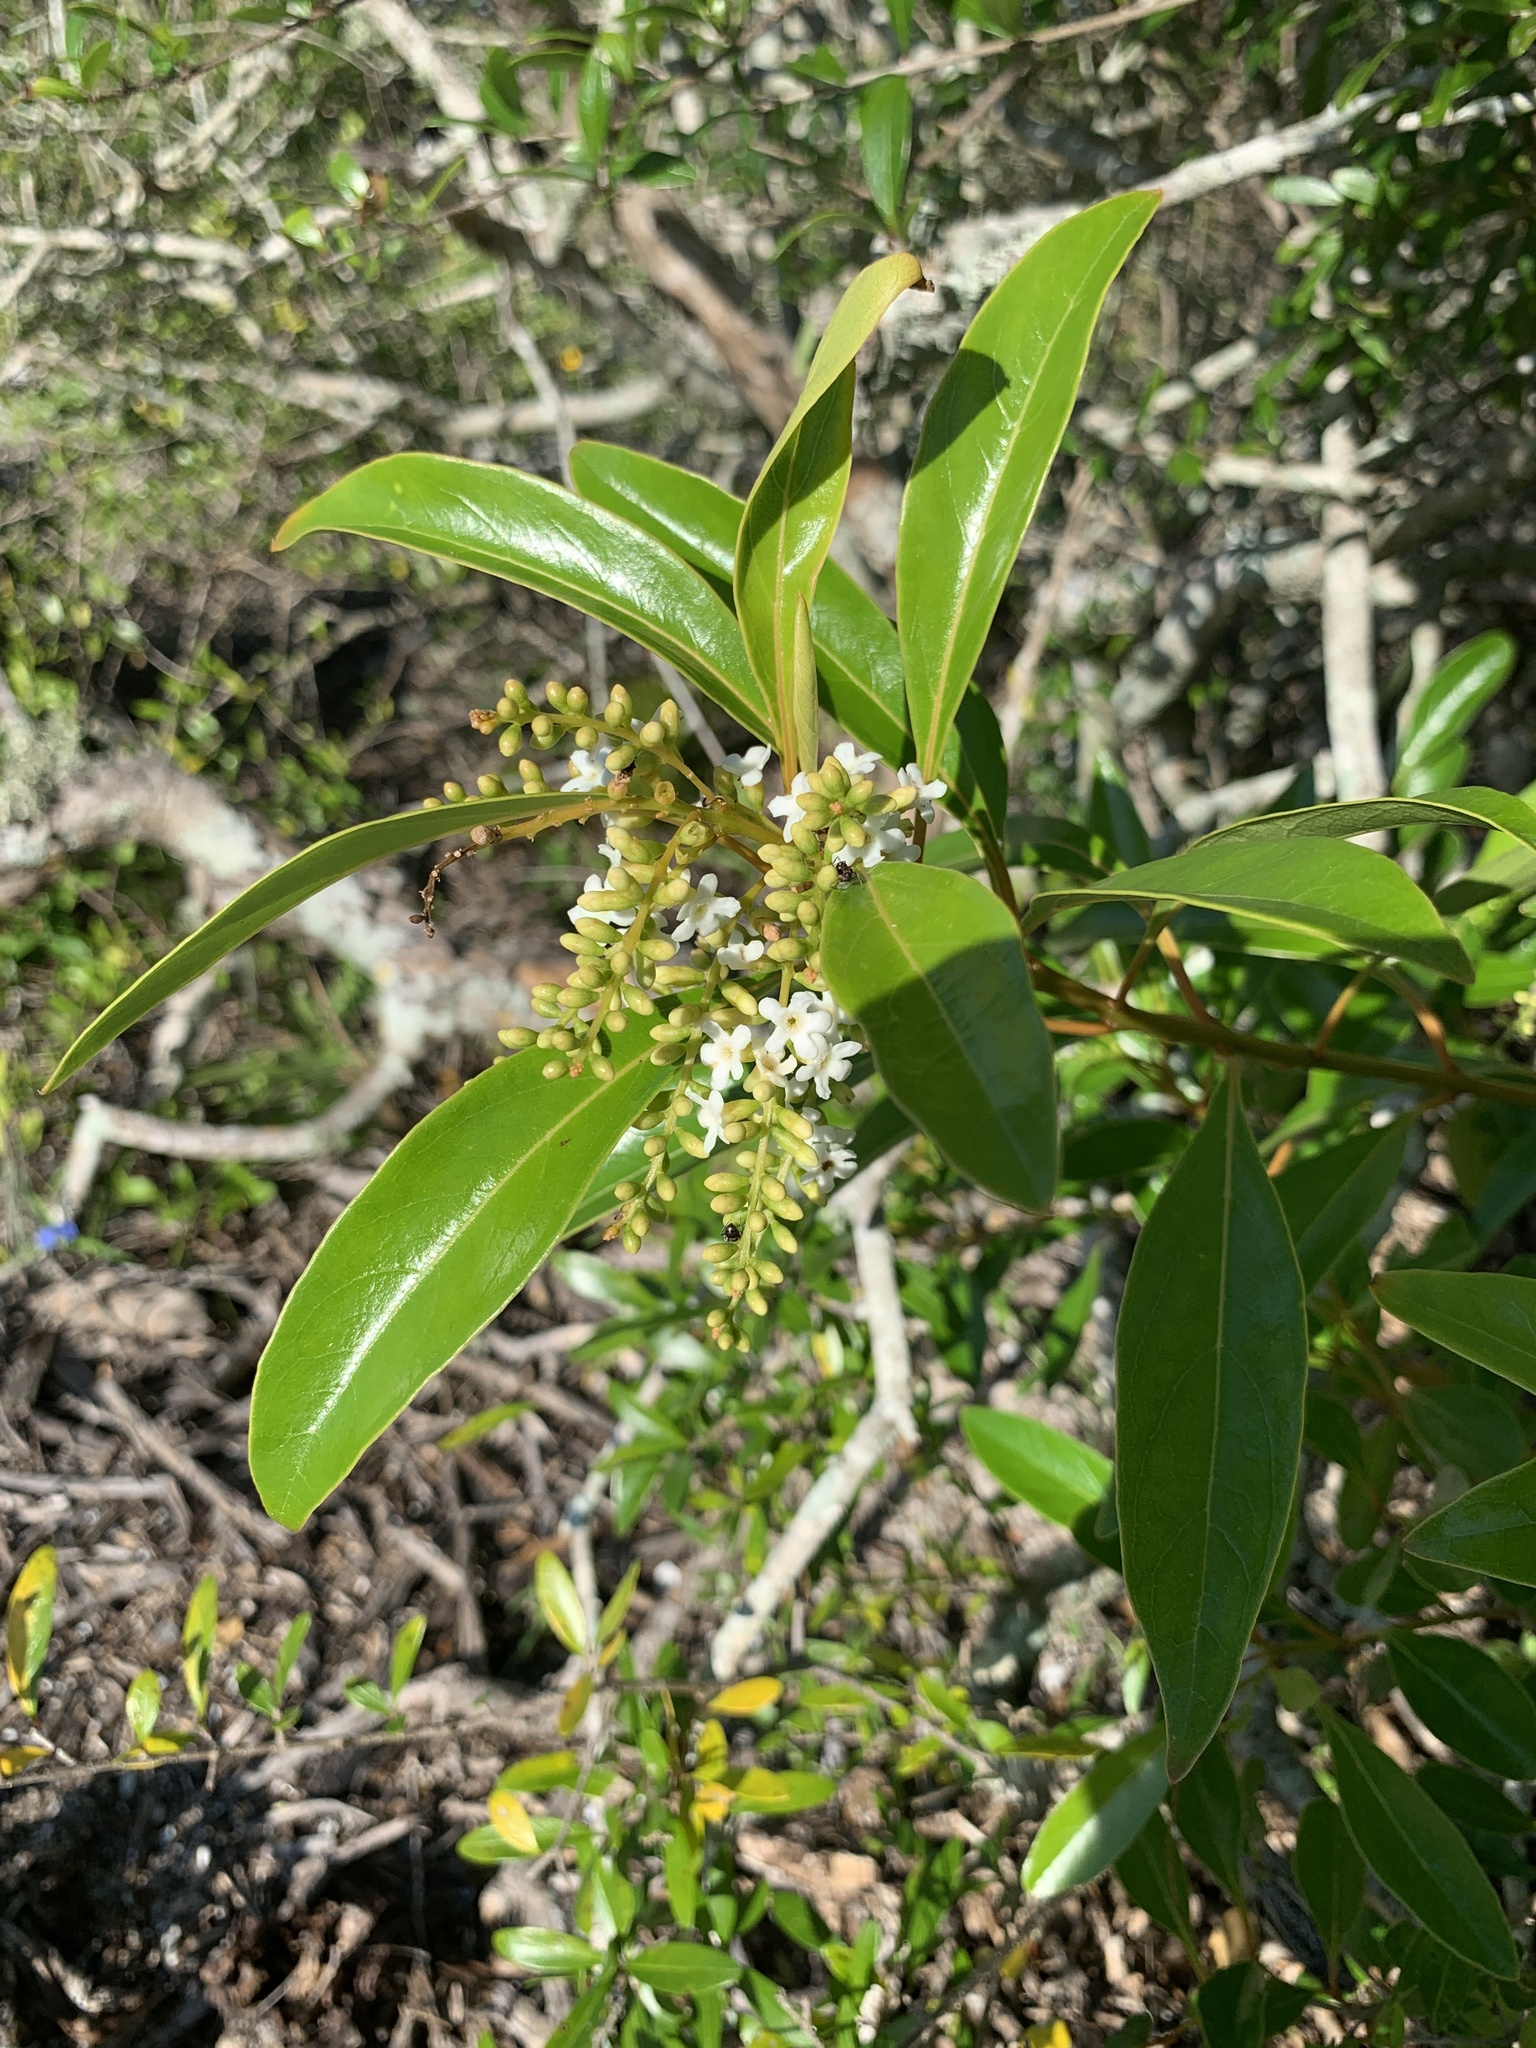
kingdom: Plantae
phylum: Tracheophyta
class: Magnoliopsida
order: Lamiales
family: Verbenaceae
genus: Citharexylum
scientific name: Citharexylum spinosum
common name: Fiddlewood
